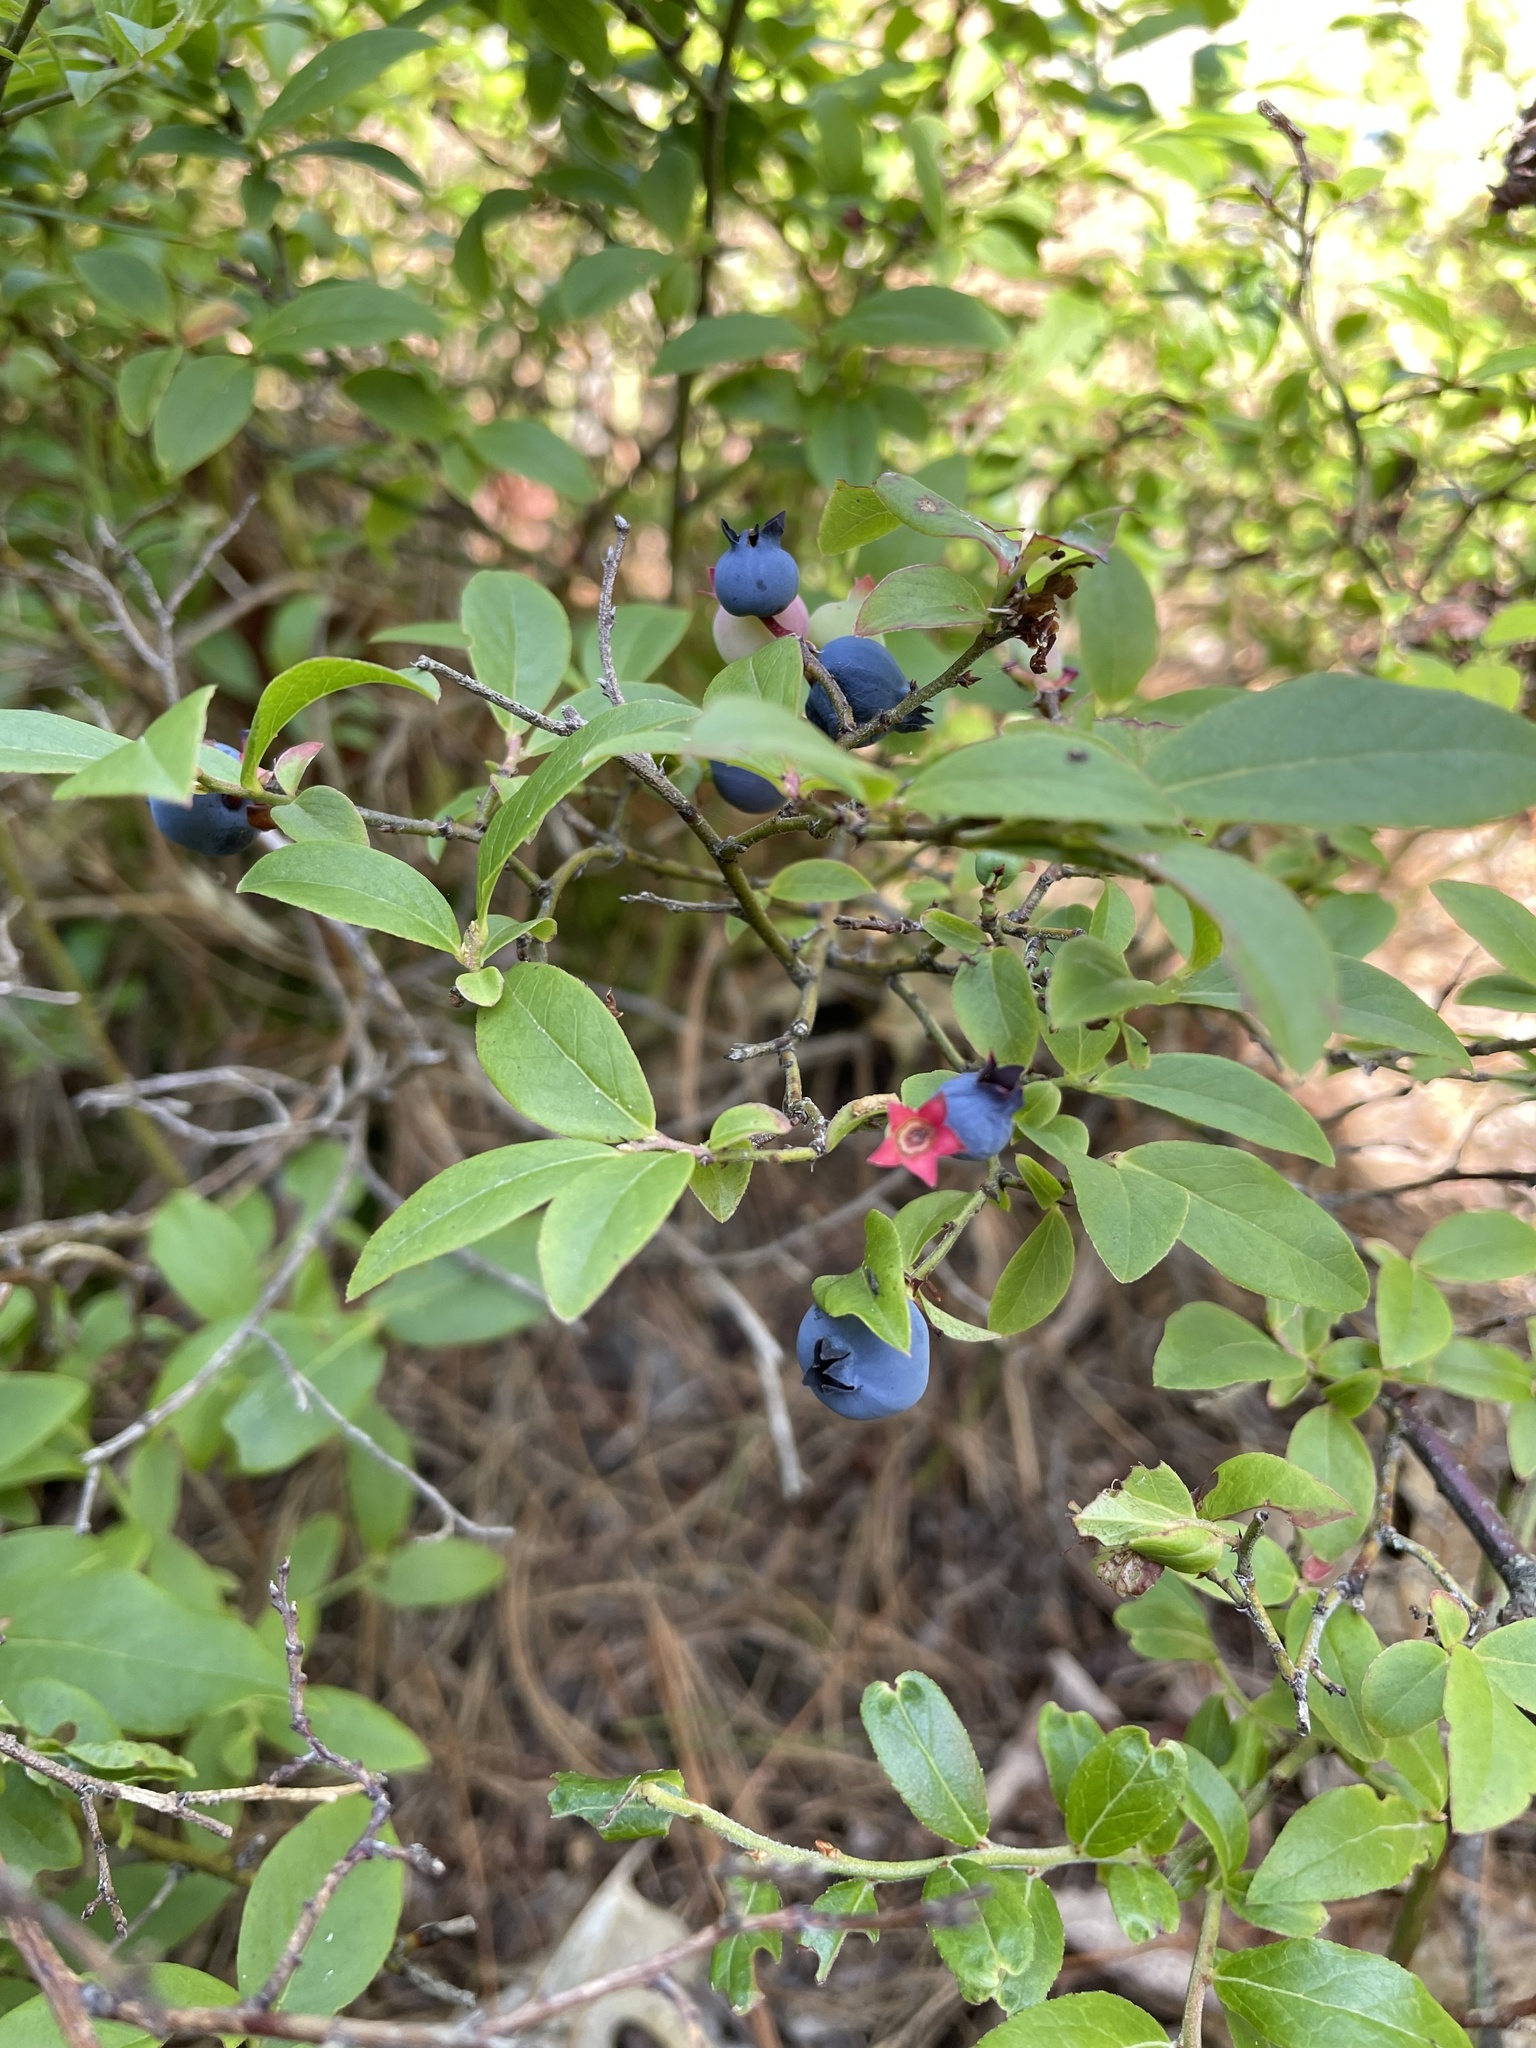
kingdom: Plantae
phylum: Tracheophyta
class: Magnoliopsida
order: Ericales
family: Ericaceae
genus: Vaccinium
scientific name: Vaccinium angustifolium
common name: Early lowbush blueberry
